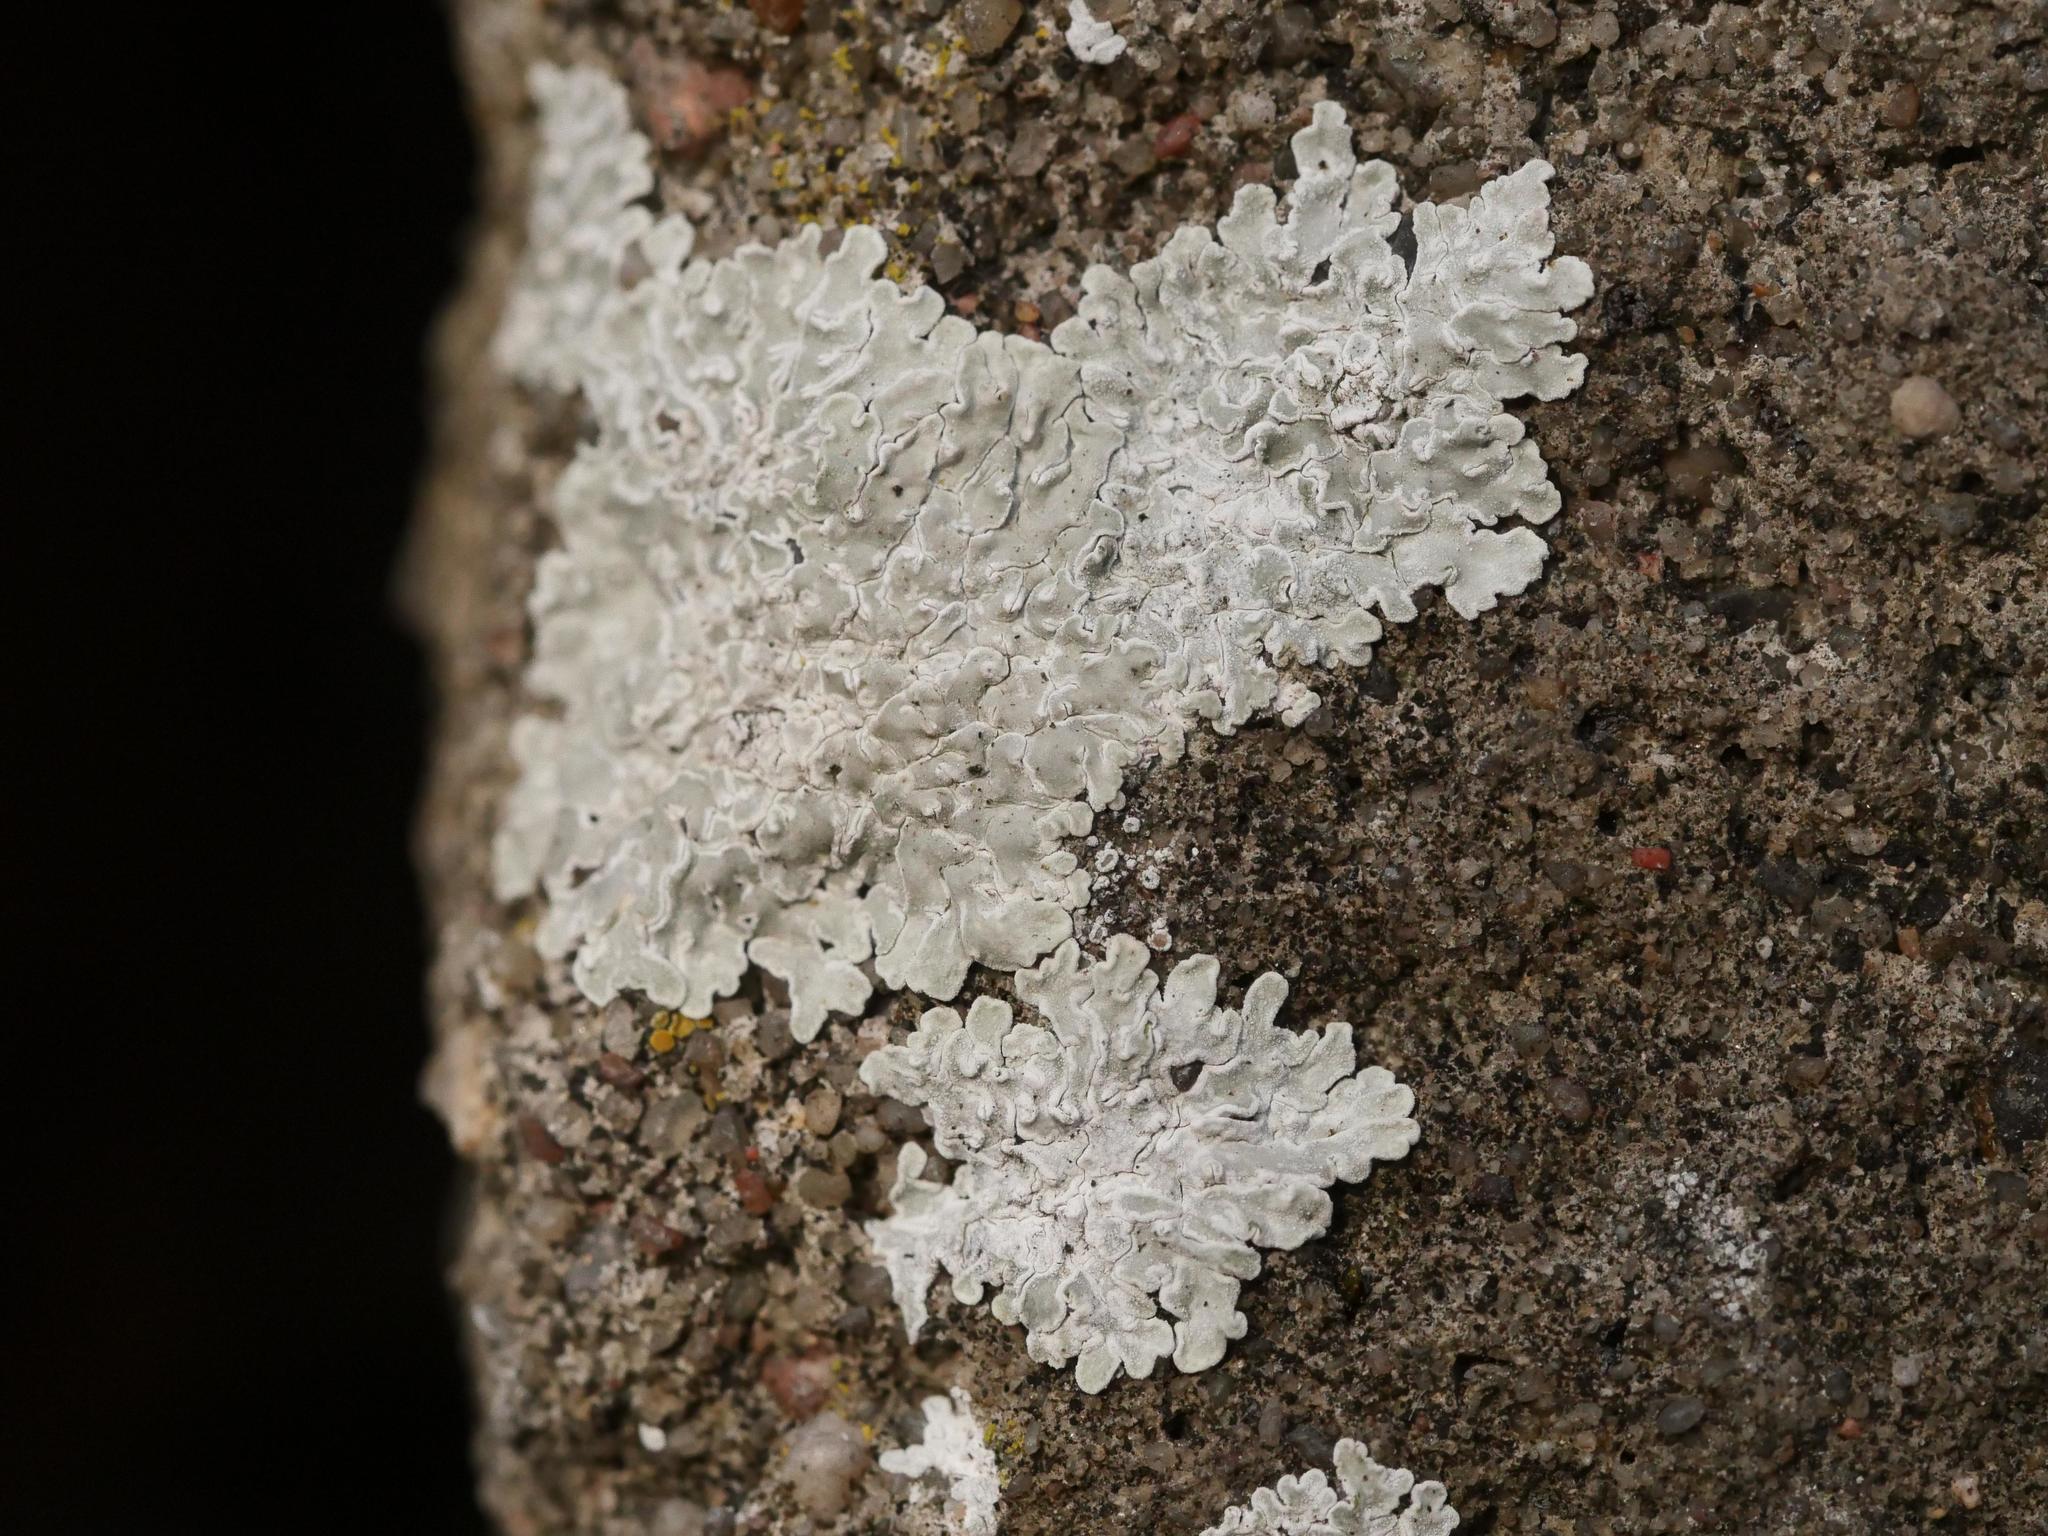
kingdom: Fungi
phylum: Ascomycota
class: Lecanoromycetes
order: Lecanorales
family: Lecanoraceae
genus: Protoparmeliopsis
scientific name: Protoparmeliopsis muralis
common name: Stonewall rim lichen
